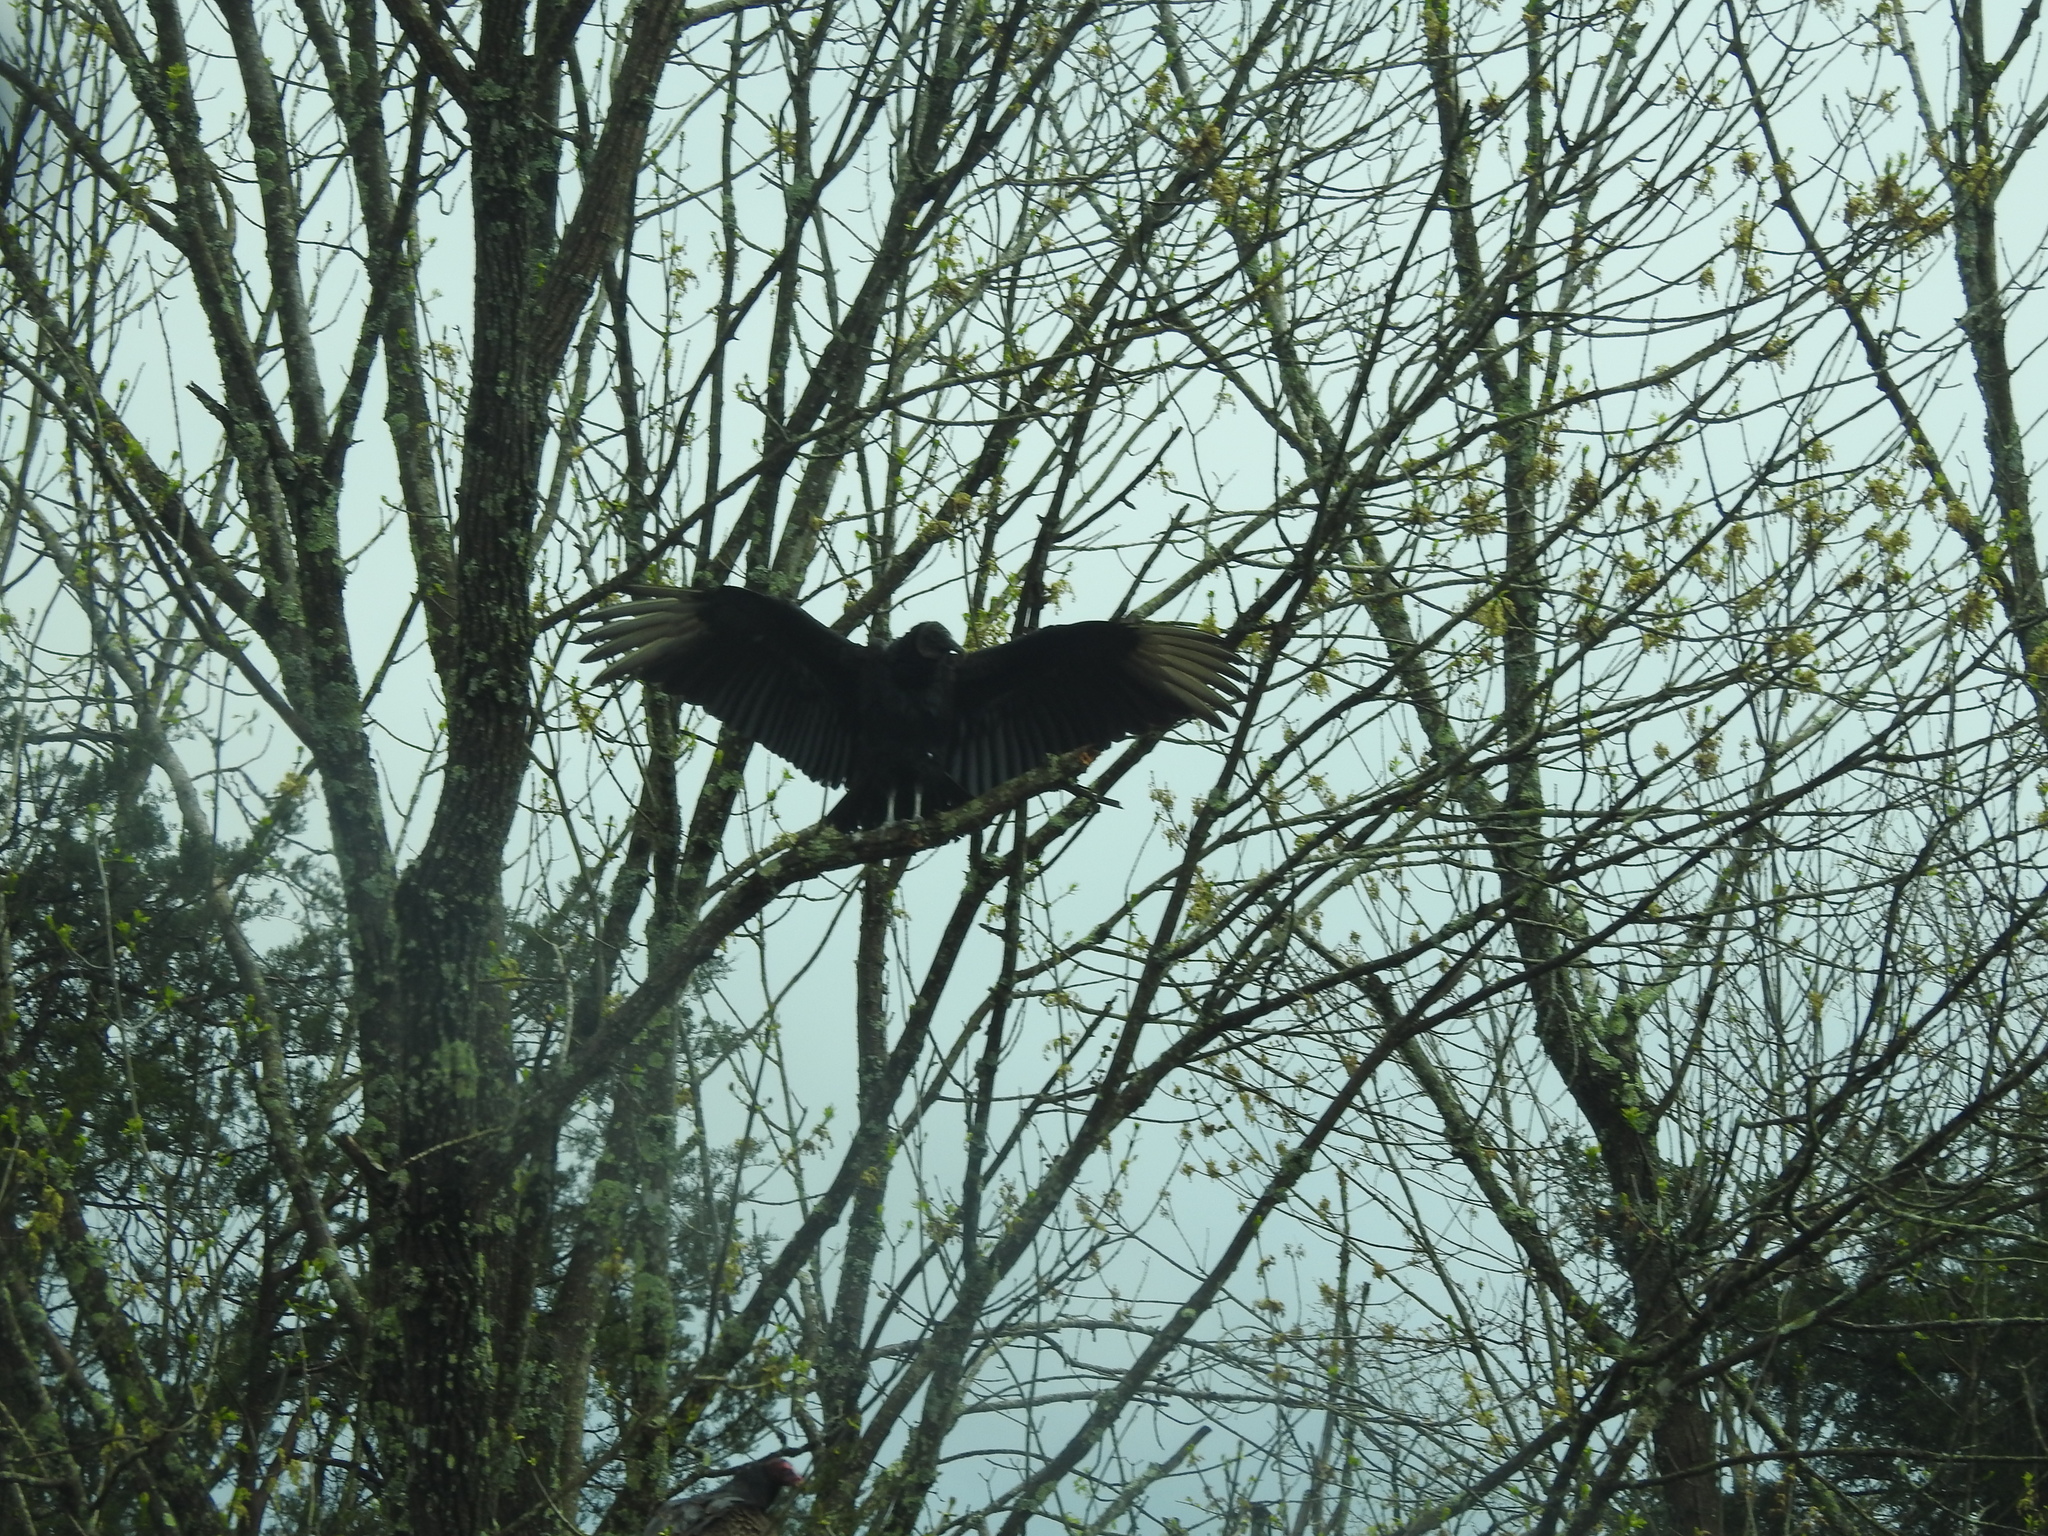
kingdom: Animalia
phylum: Chordata
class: Aves
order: Accipitriformes
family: Cathartidae
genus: Coragyps
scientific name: Coragyps atratus
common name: Black vulture
